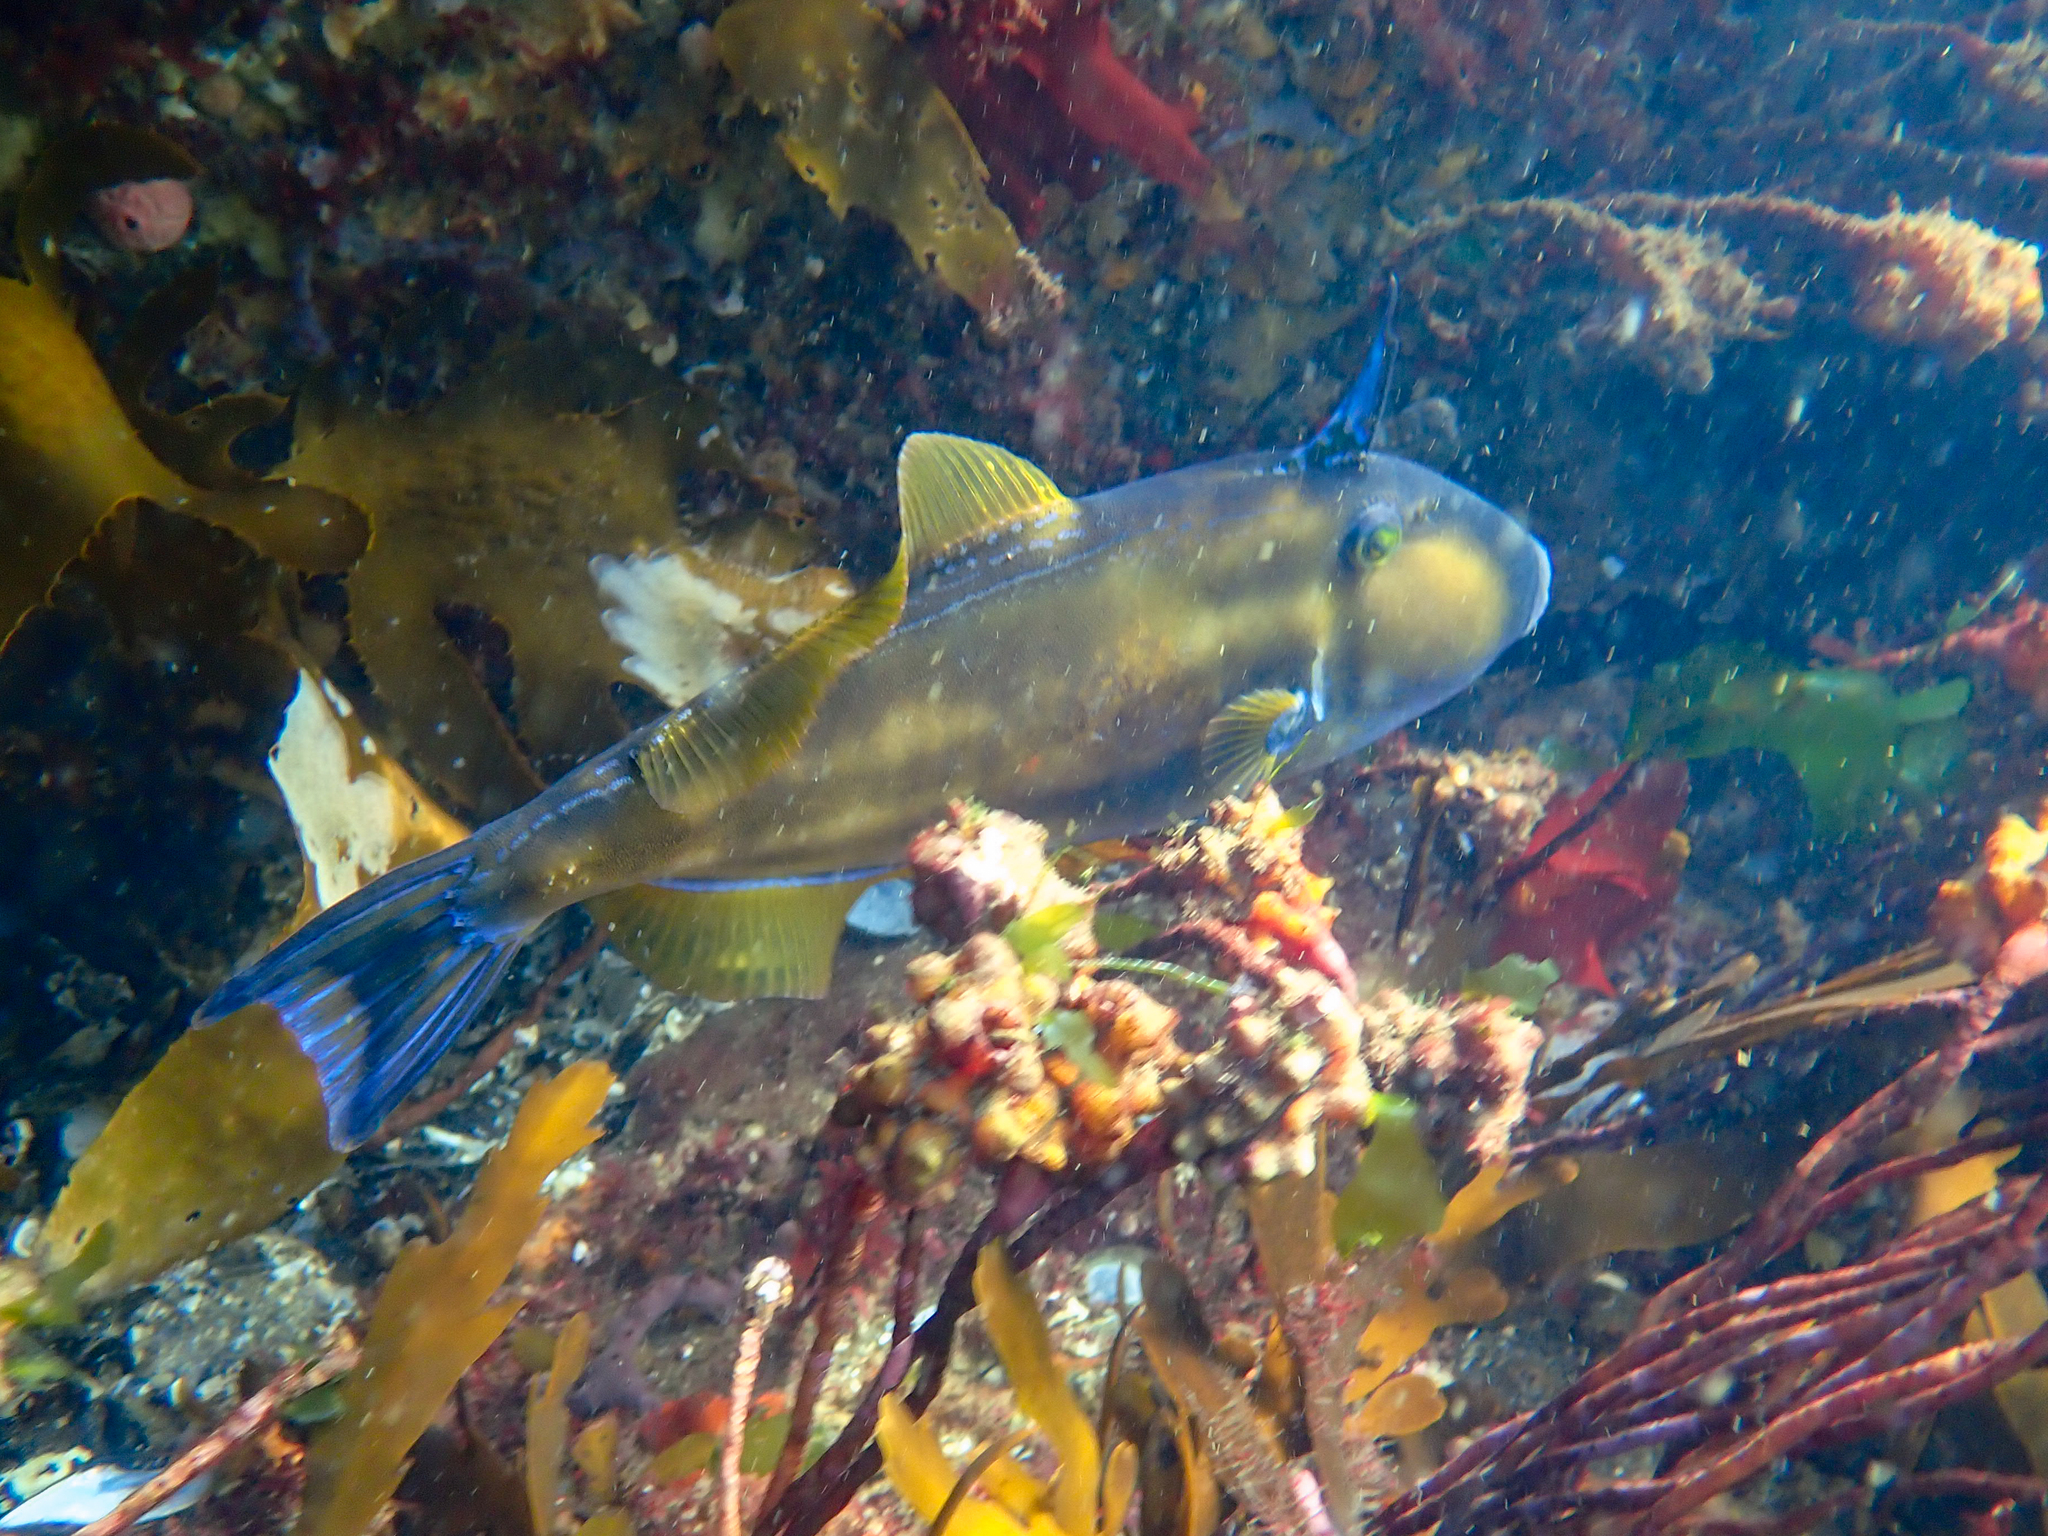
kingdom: Animalia
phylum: Chordata
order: Tetraodontiformes
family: Monacanthidae
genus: Meuschenia
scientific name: Meuschenia freycineti
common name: Freycinet's leatherjacket
